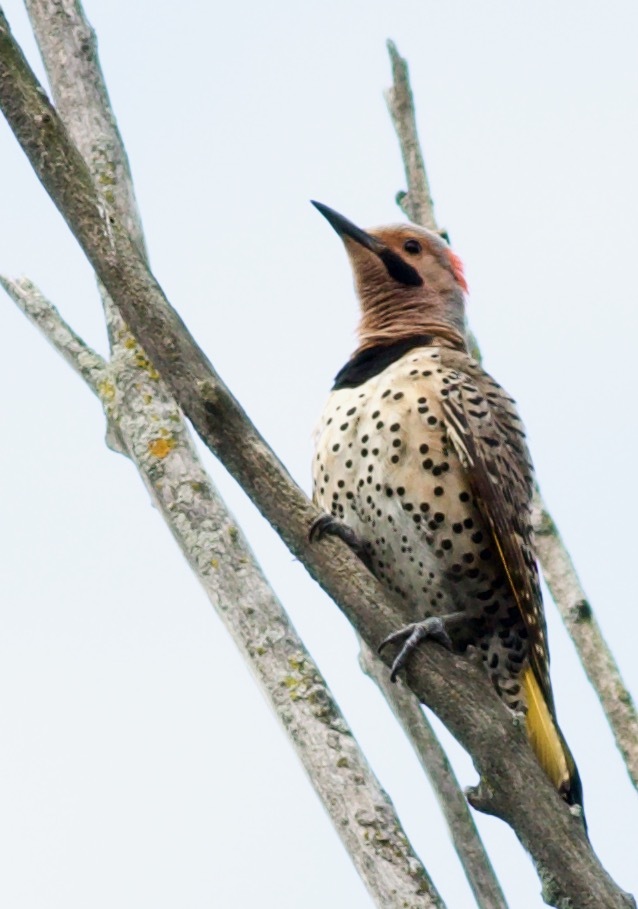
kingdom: Animalia
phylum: Chordata
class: Aves
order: Piciformes
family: Picidae
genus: Colaptes
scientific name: Colaptes auratus
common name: Northern flicker
